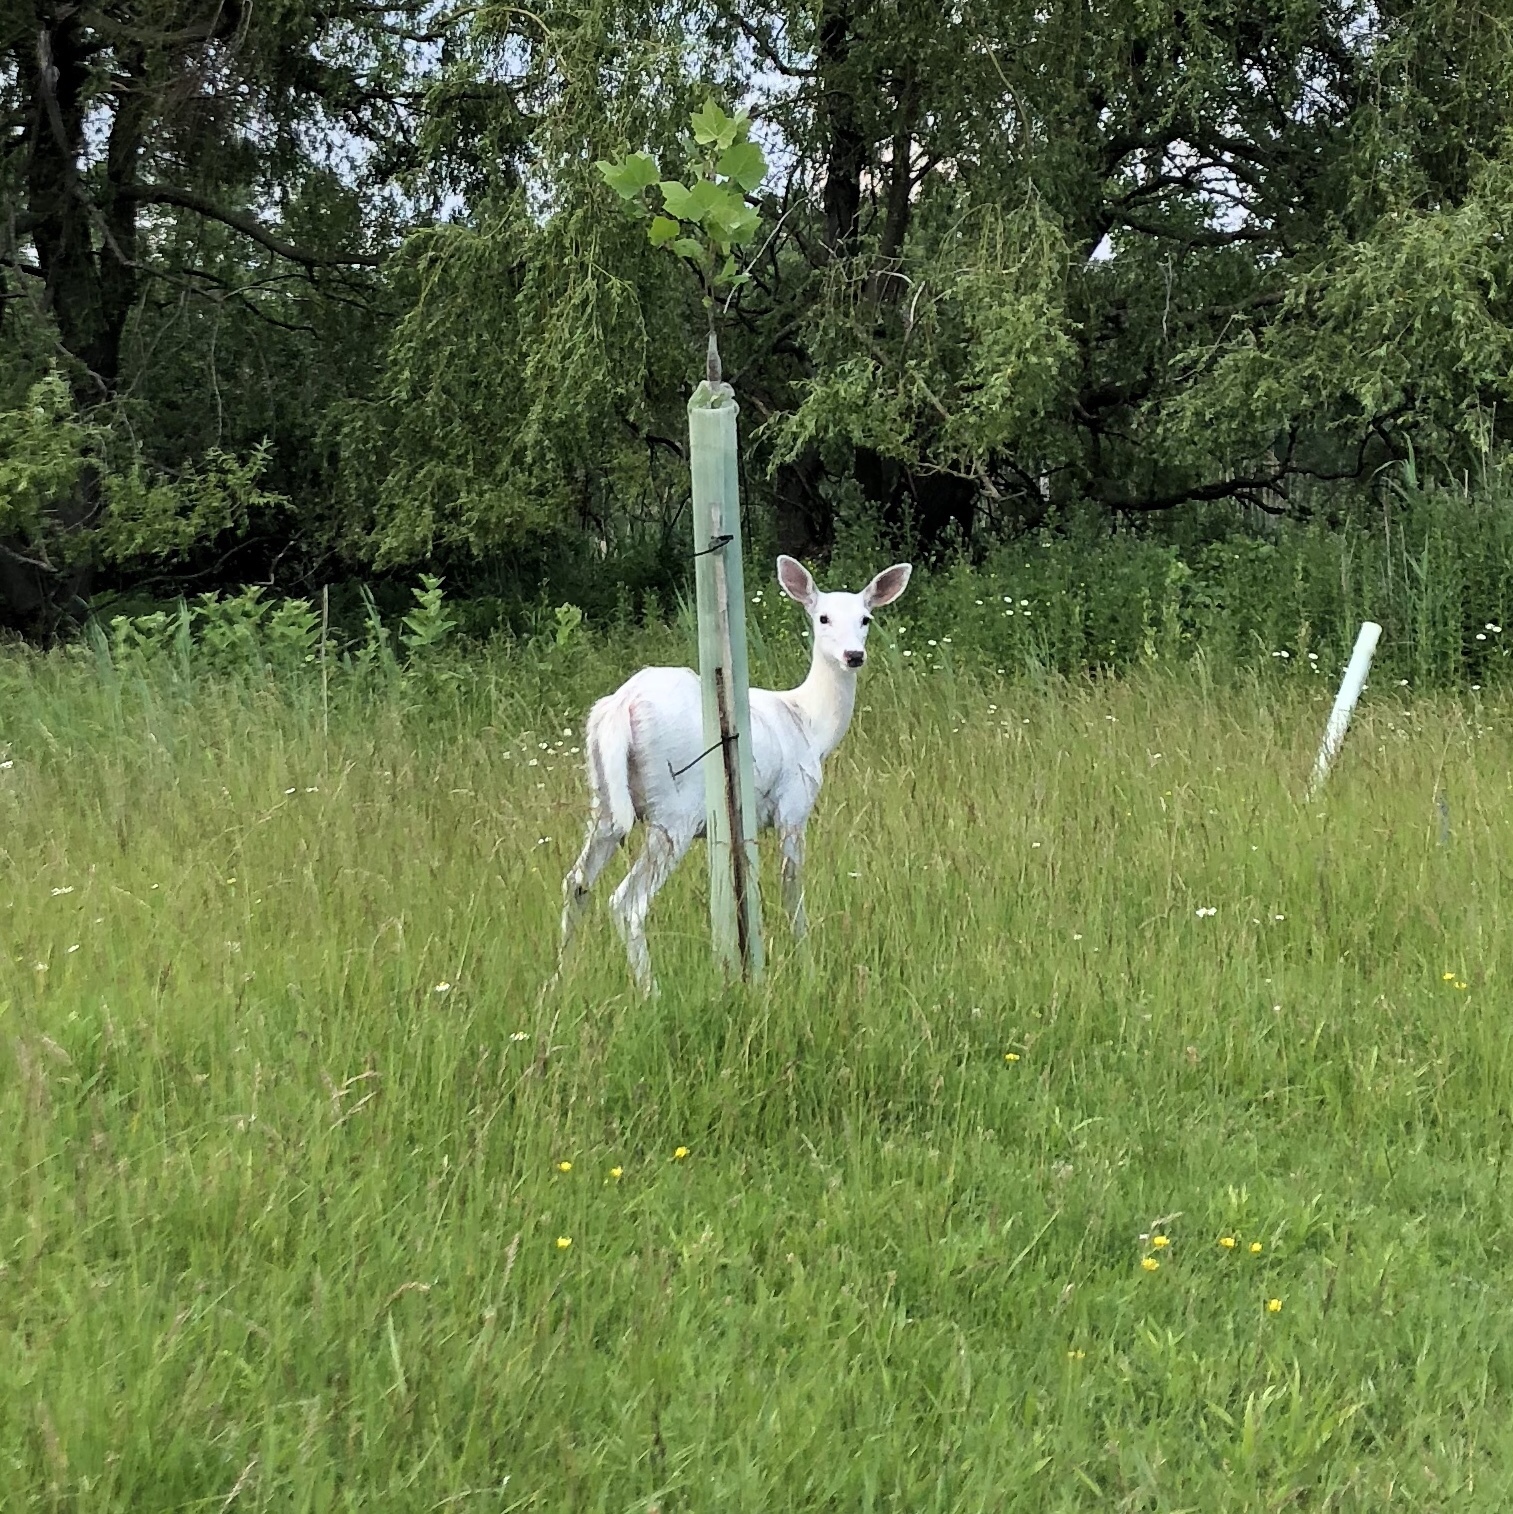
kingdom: Animalia
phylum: Chordata
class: Mammalia
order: Artiodactyla
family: Cervidae
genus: Odocoileus
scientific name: Odocoileus virginianus
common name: White-tailed deer
